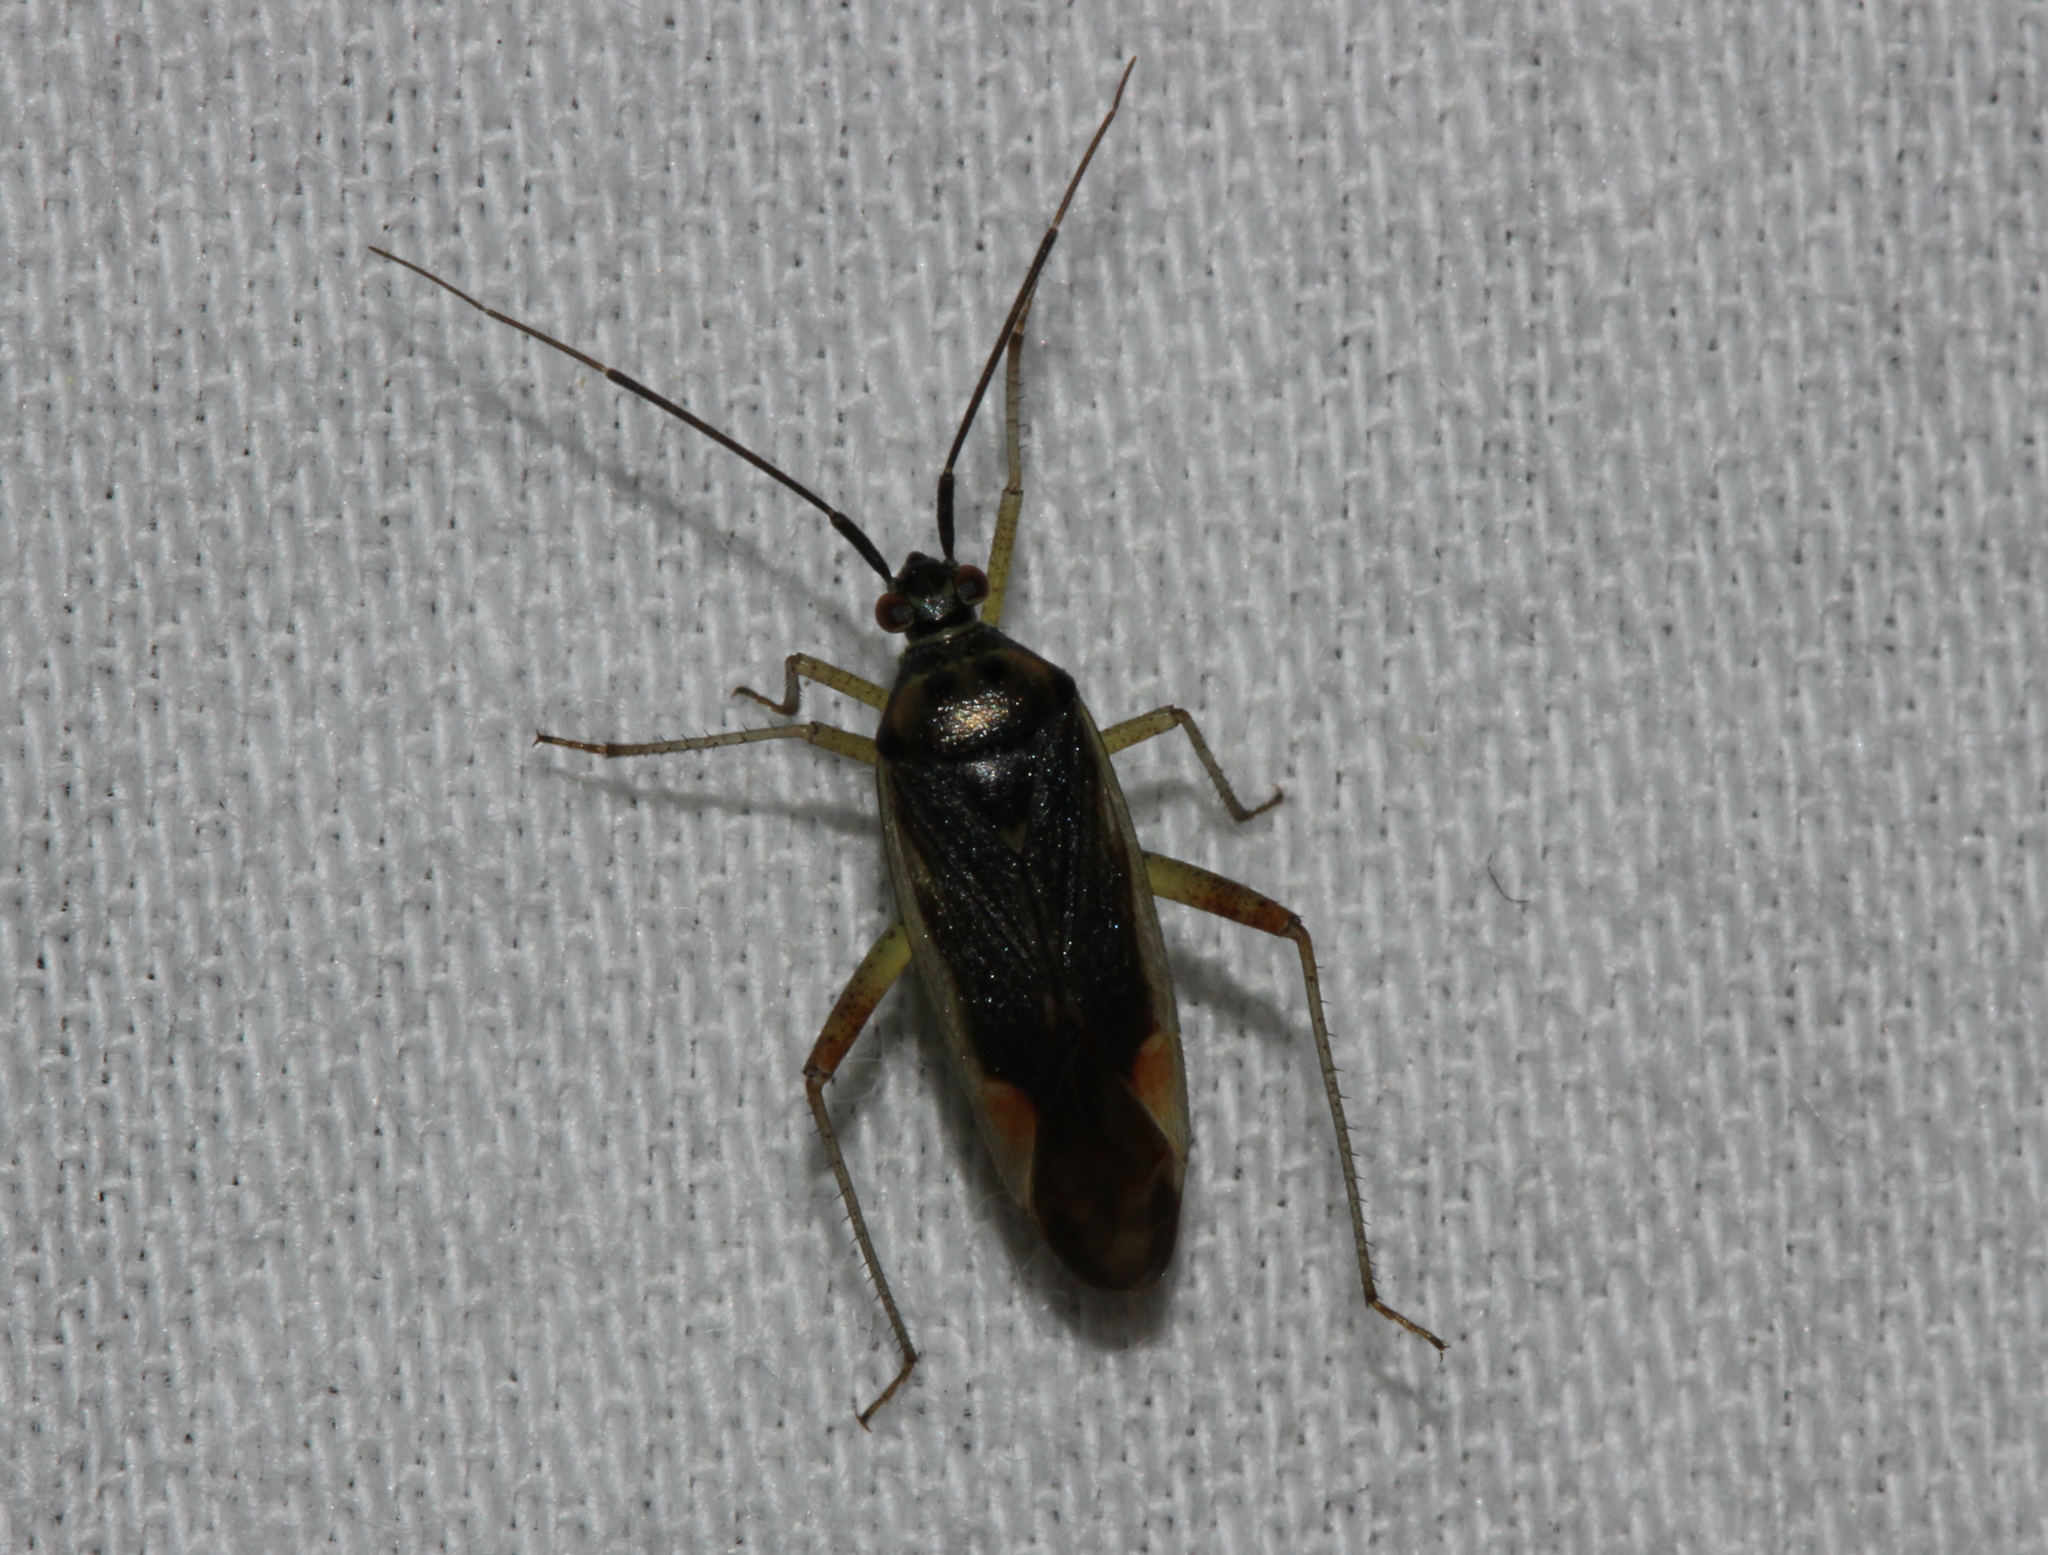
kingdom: Animalia
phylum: Arthropoda
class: Insecta
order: Hemiptera
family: Miridae
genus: Closterotomus
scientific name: Closterotomus trivialis
